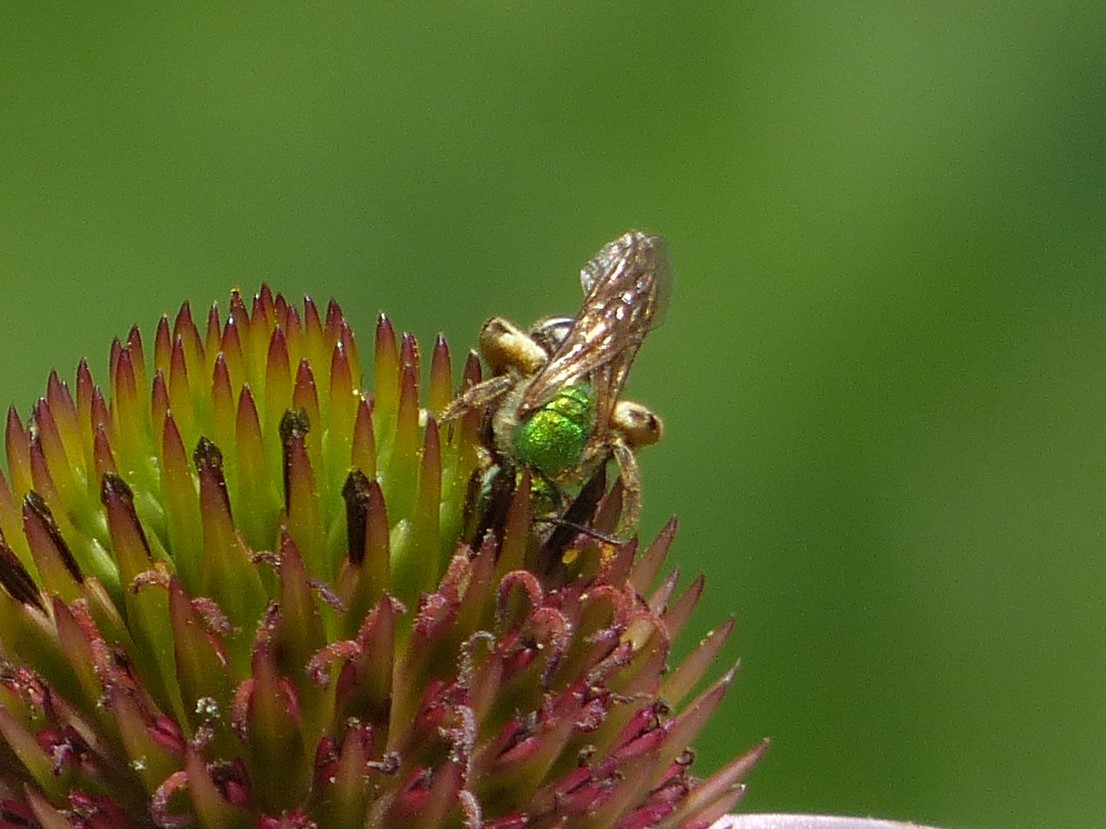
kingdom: Animalia
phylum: Arthropoda
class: Insecta
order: Hymenoptera
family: Halictidae
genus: Agapostemon
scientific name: Agapostemon virescens
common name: Bicolored striped sweat bee
